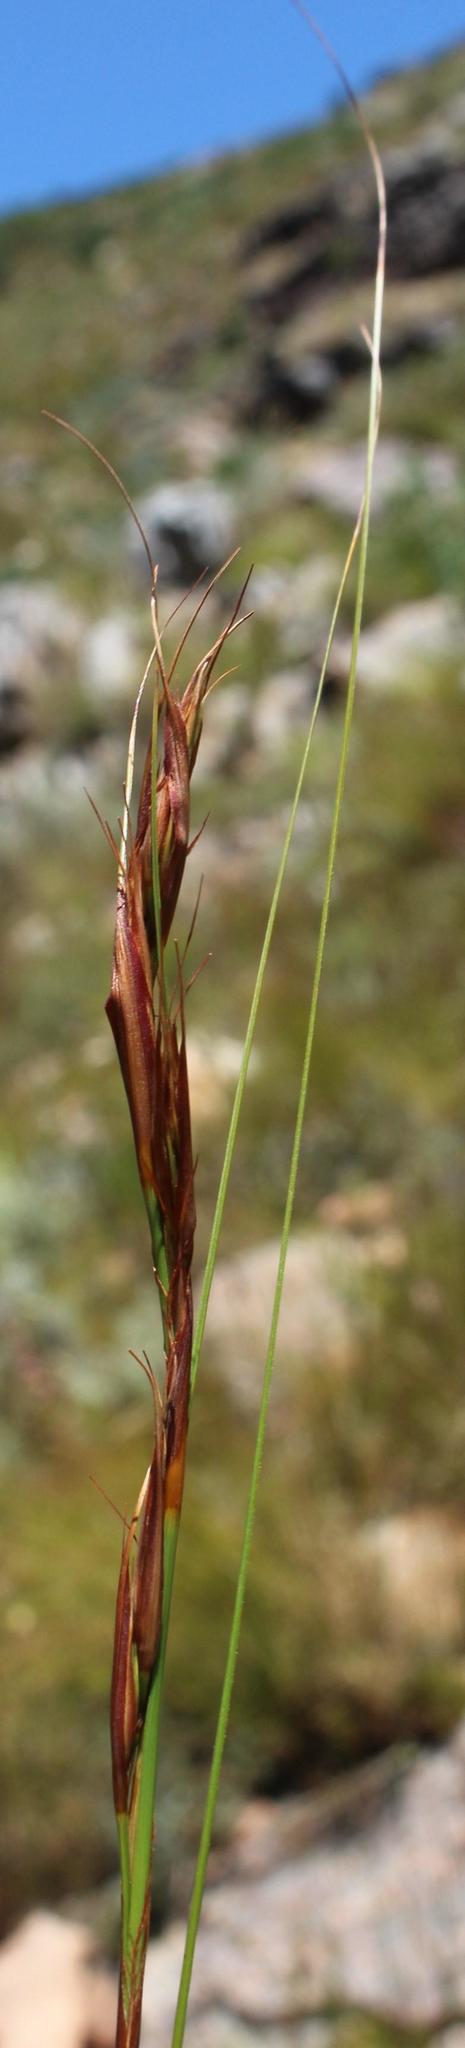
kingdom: Plantae
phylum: Tracheophyta
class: Liliopsida
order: Poales
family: Cyperaceae
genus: Tetraria
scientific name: Tetraria ustulata
